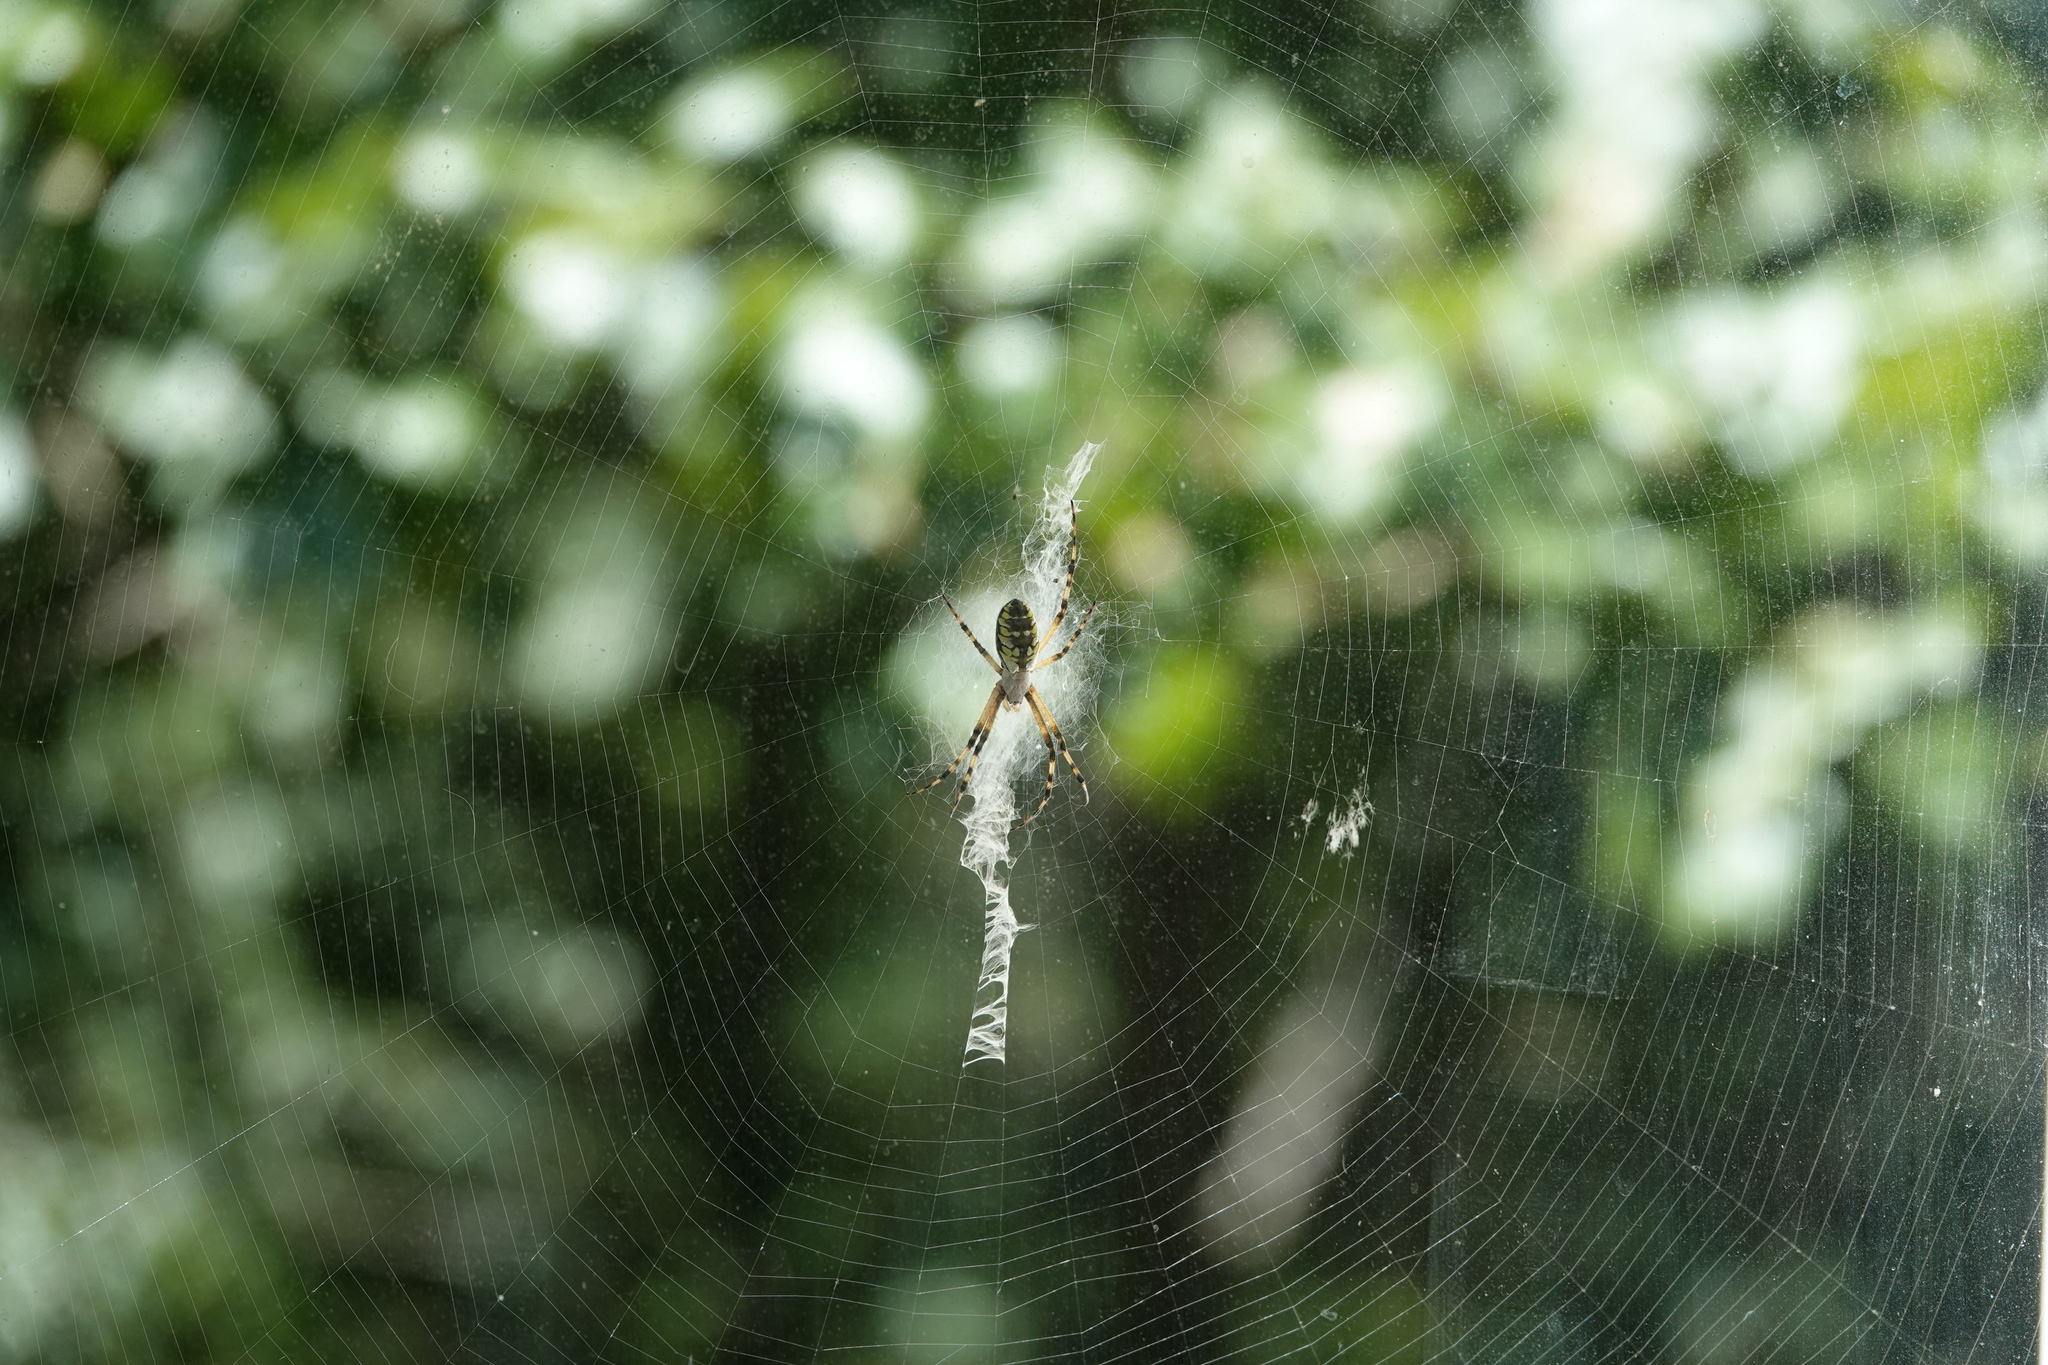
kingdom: Animalia
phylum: Arthropoda
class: Arachnida
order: Araneae
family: Araneidae
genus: Argiope
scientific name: Argiope aurantia
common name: Orb weavers
